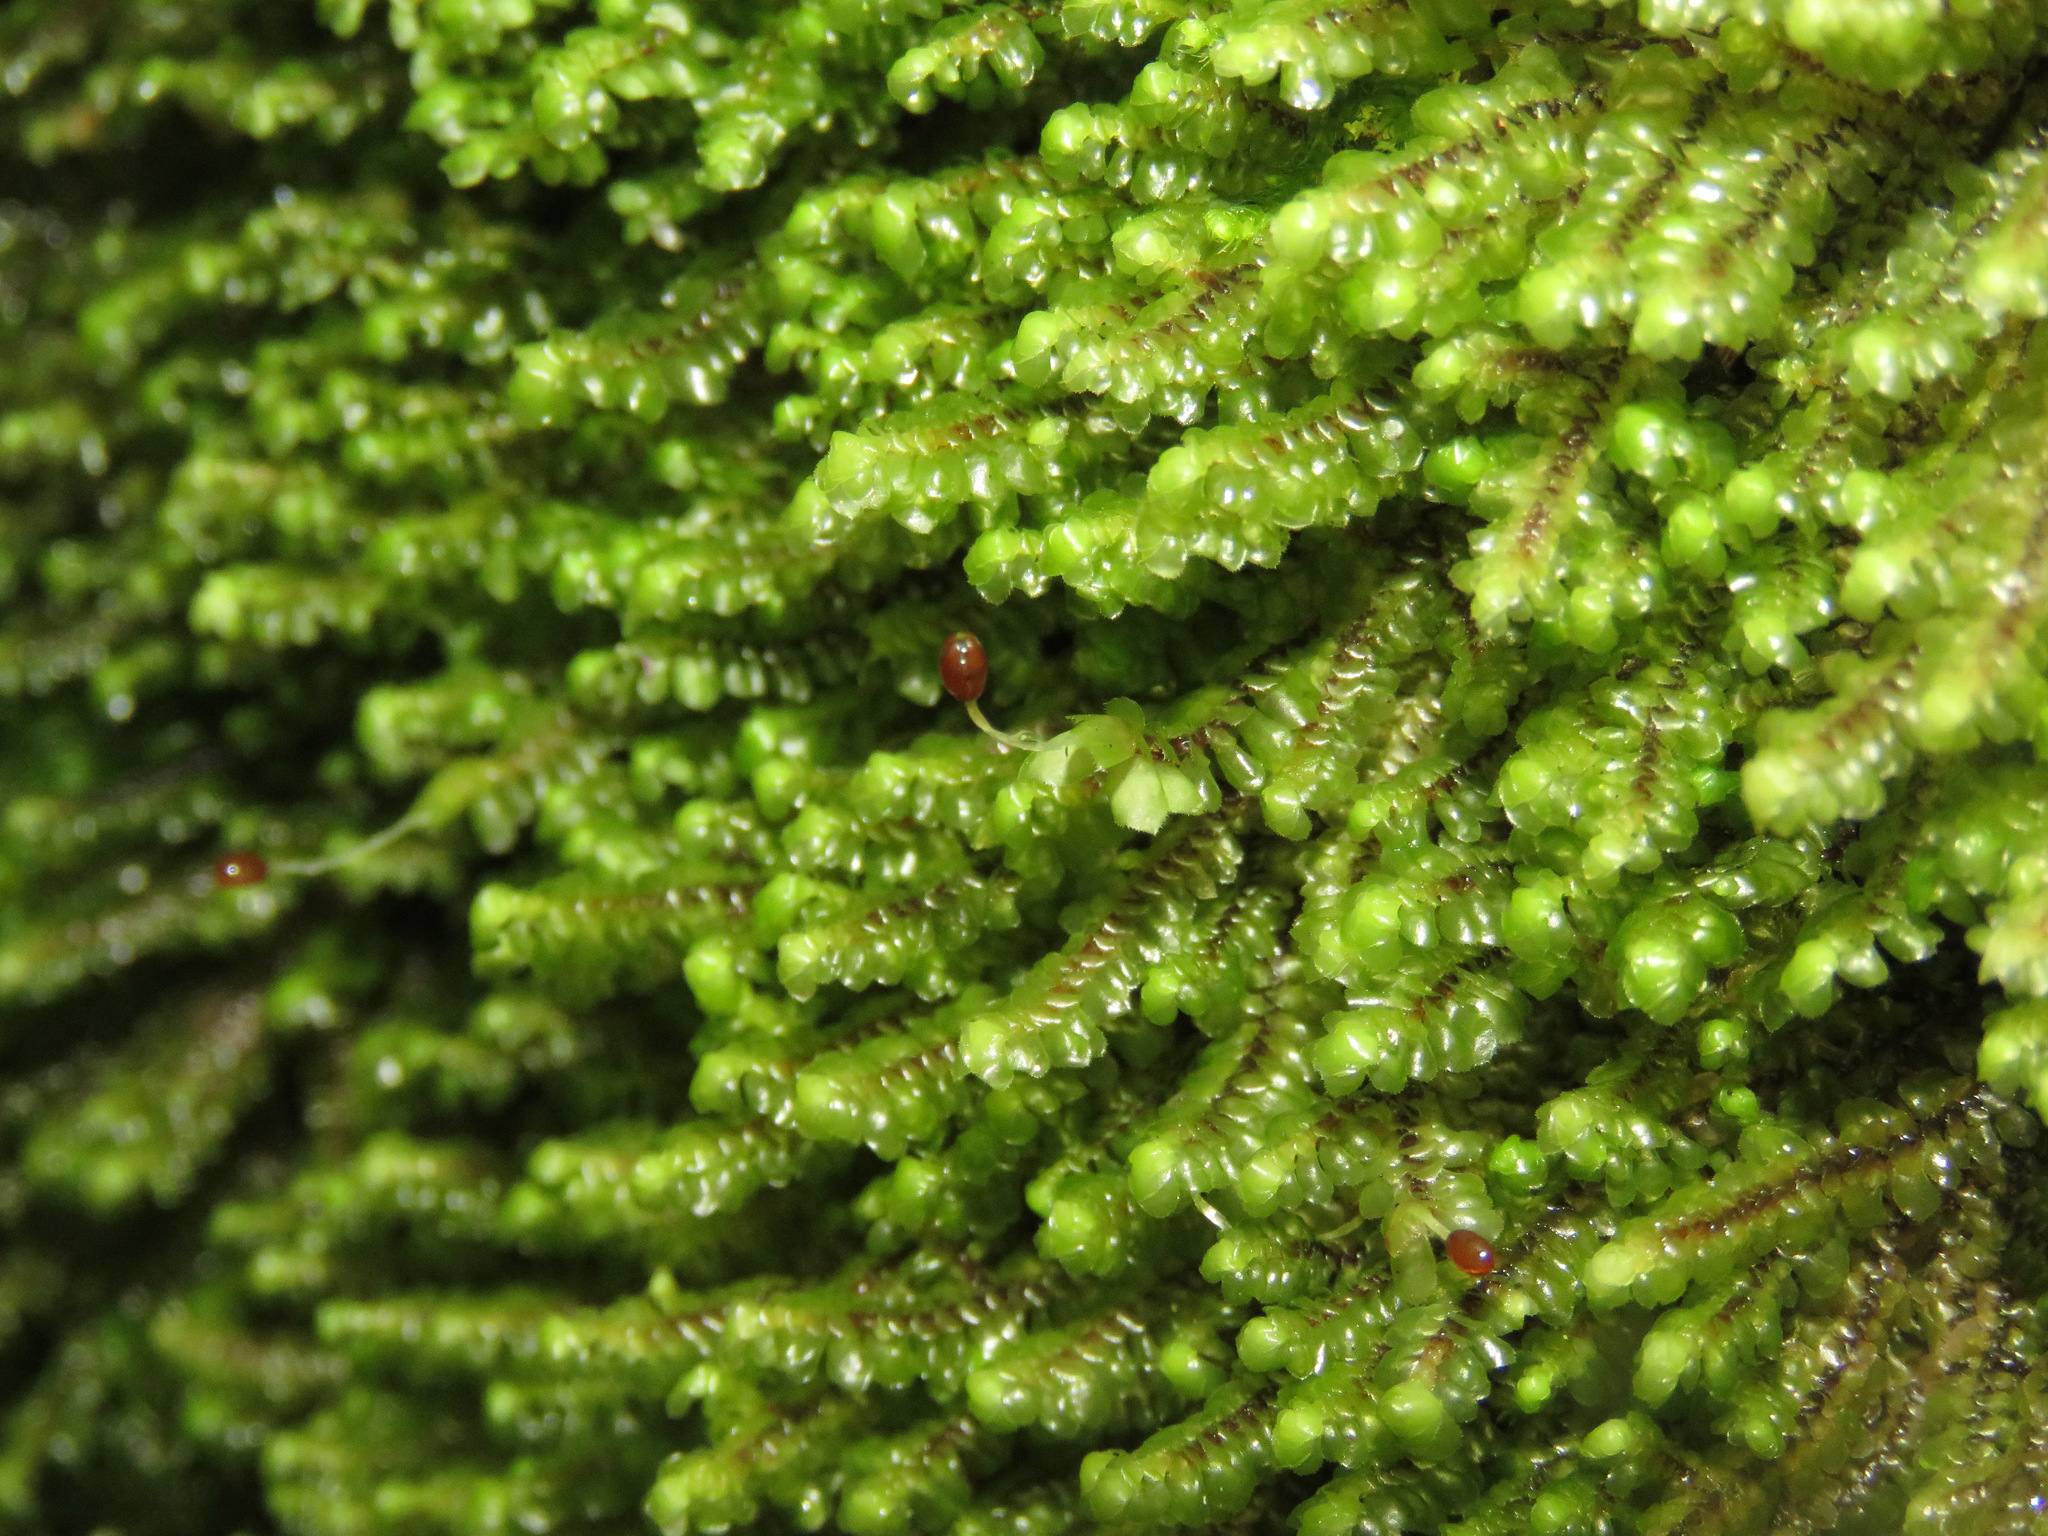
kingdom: Plantae
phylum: Marchantiophyta
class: Jungermanniopsida
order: Jungermanniales
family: Scapaniaceae
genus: Scapania
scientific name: Scapania bolanderi
